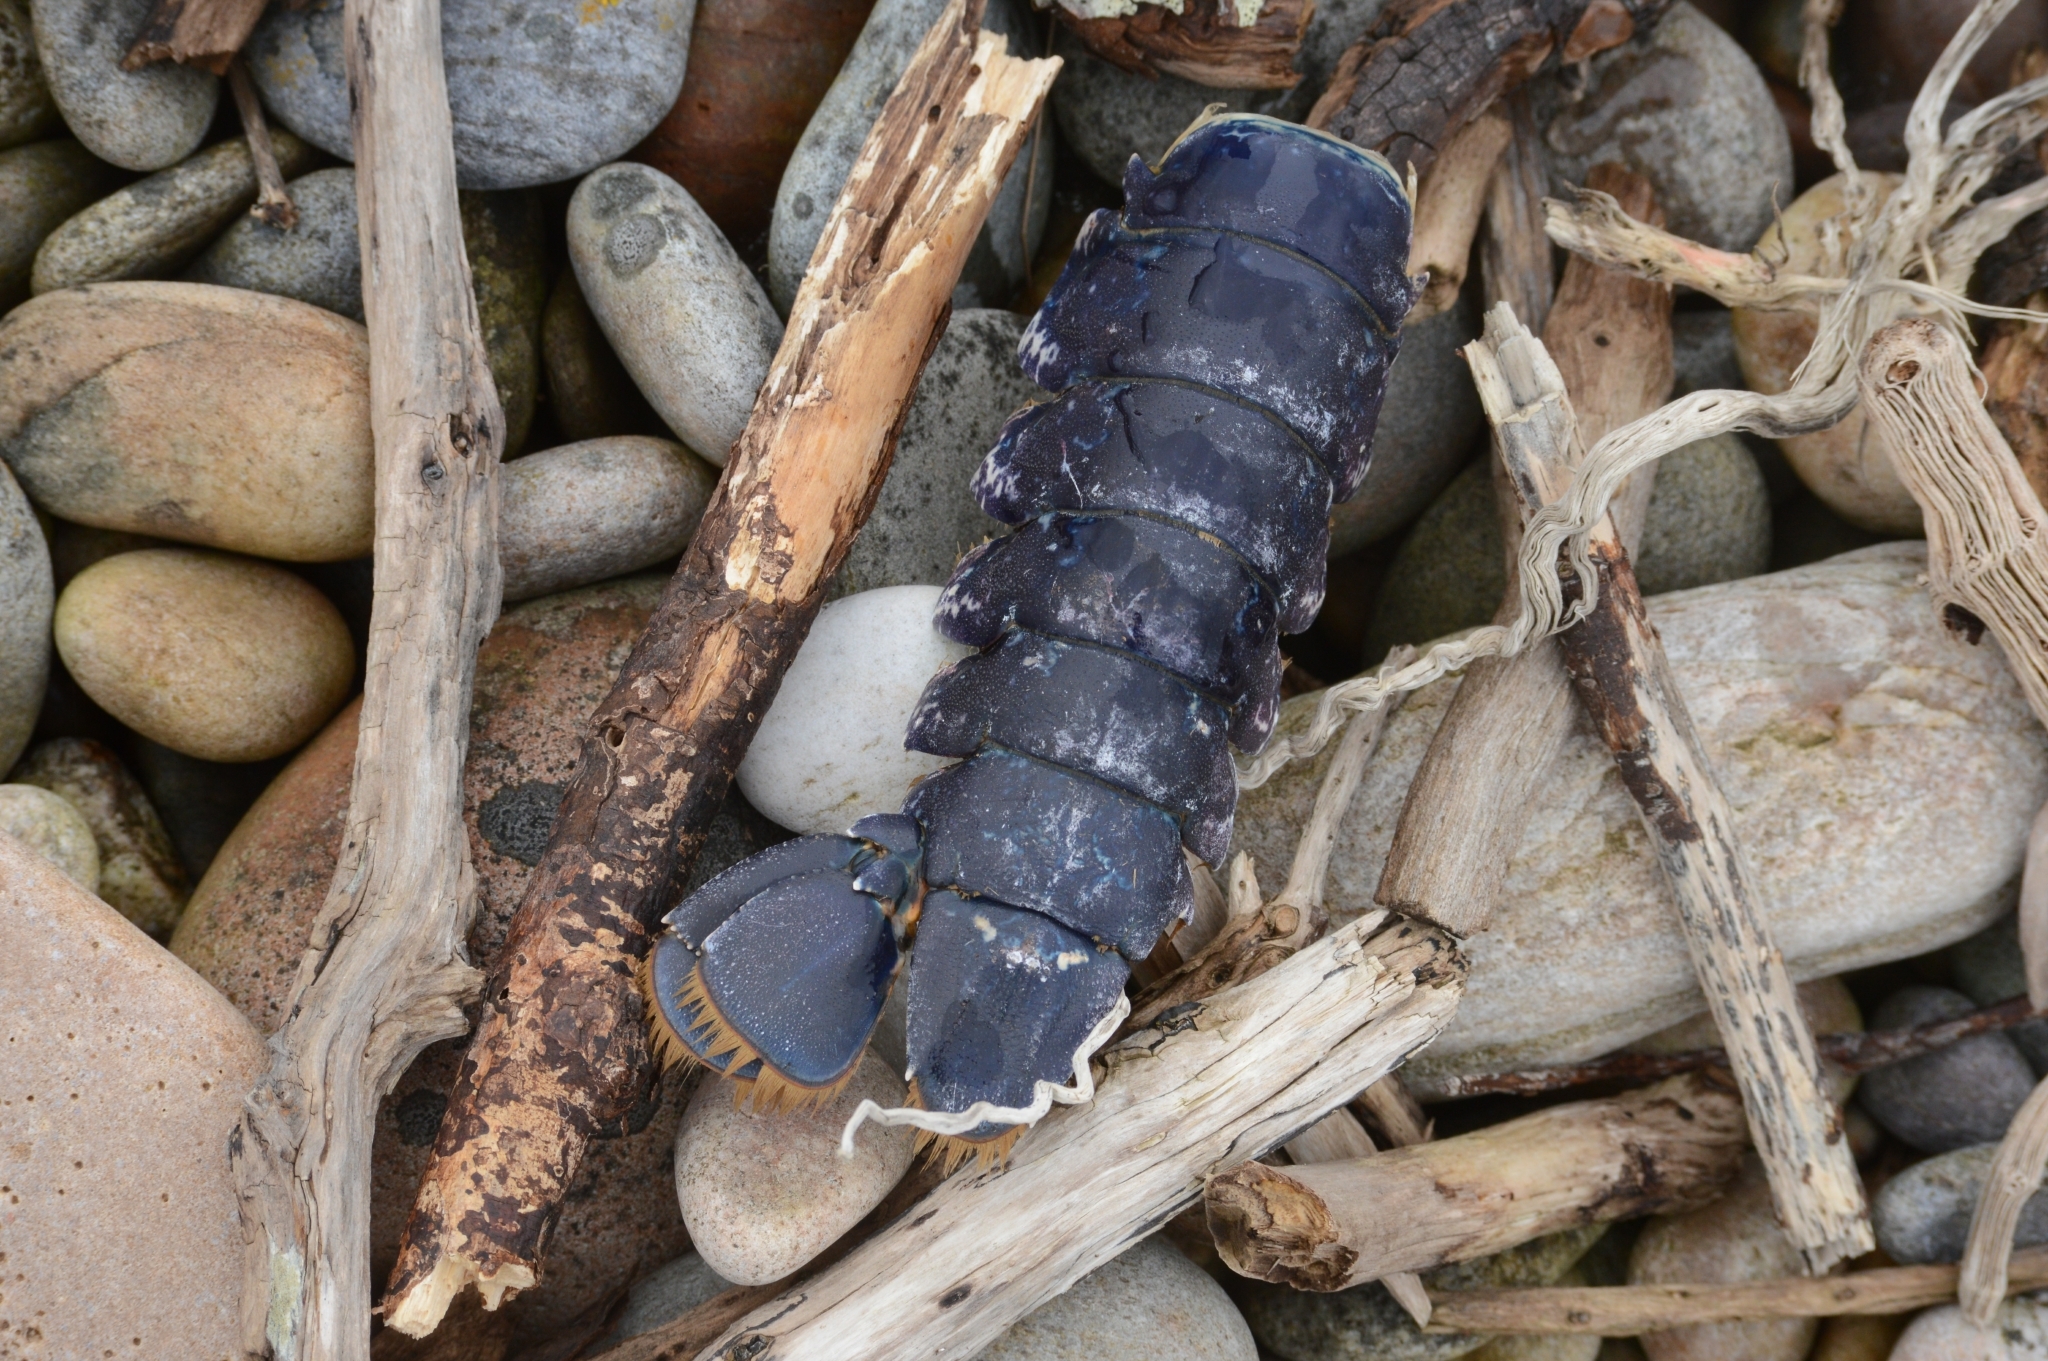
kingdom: Animalia
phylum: Arthropoda
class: Malacostraca
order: Decapoda
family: Nephropidae
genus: Homarus
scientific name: Homarus gammarus
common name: European lobster
